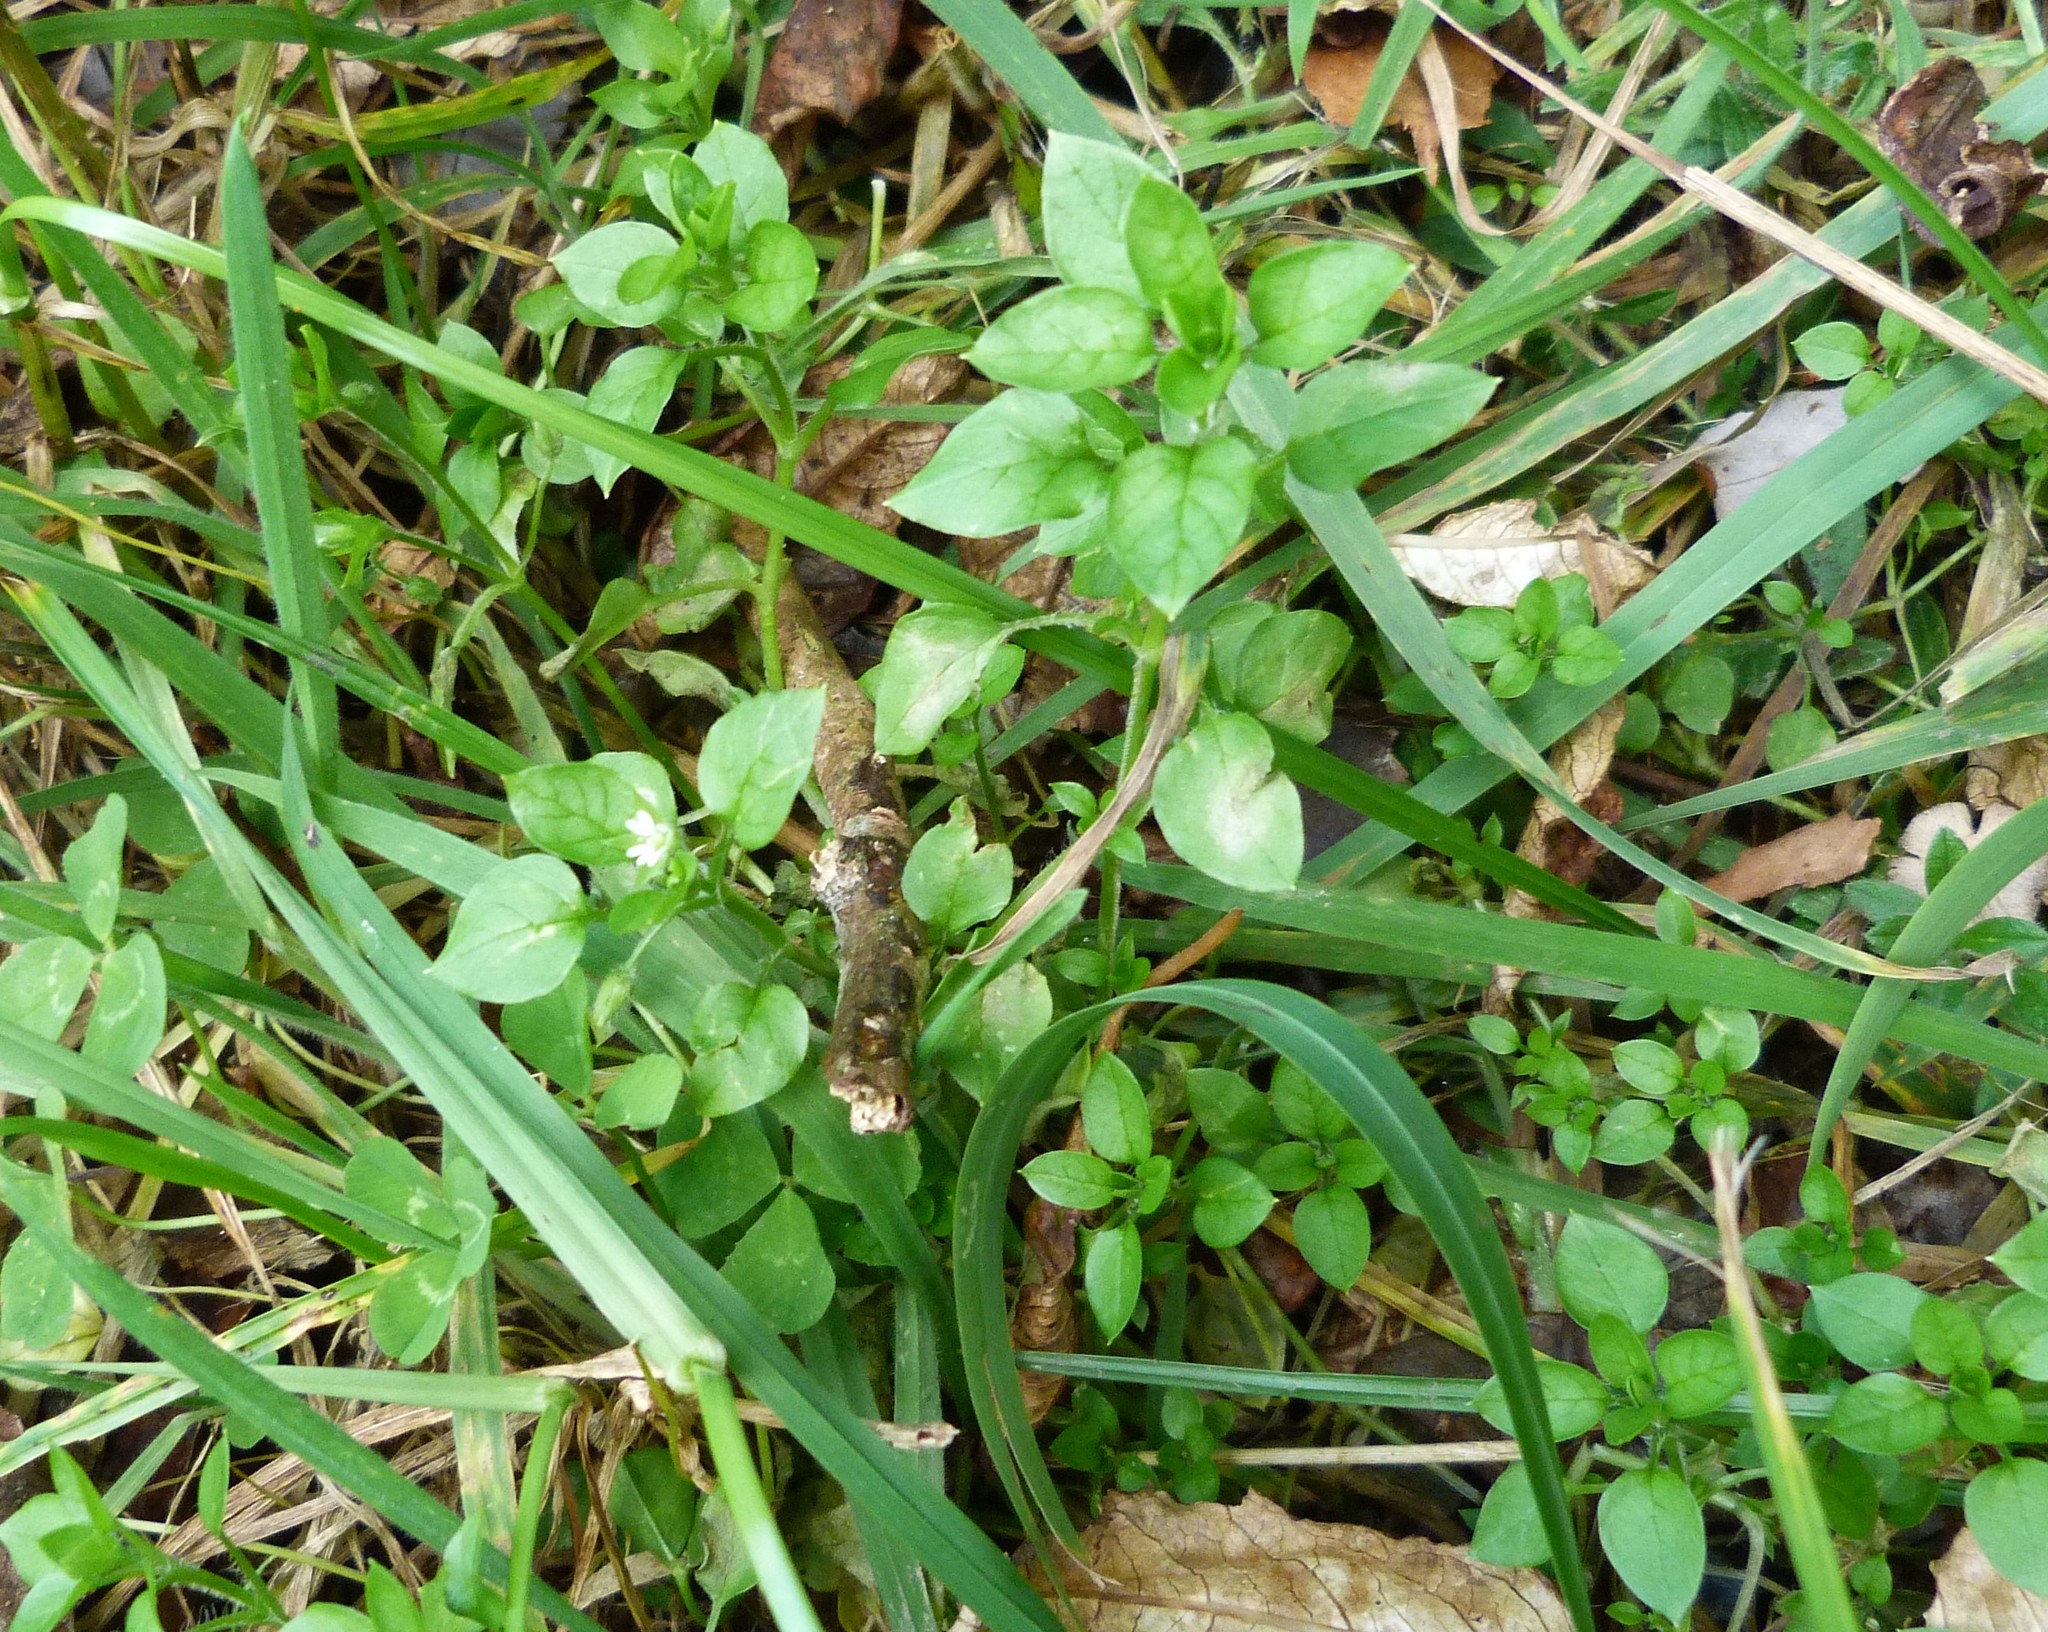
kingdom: Plantae
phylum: Tracheophyta
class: Magnoliopsida
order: Caryophyllales
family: Caryophyllaceae
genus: Stellaria
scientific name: Stellaria media
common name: Common chickweed
